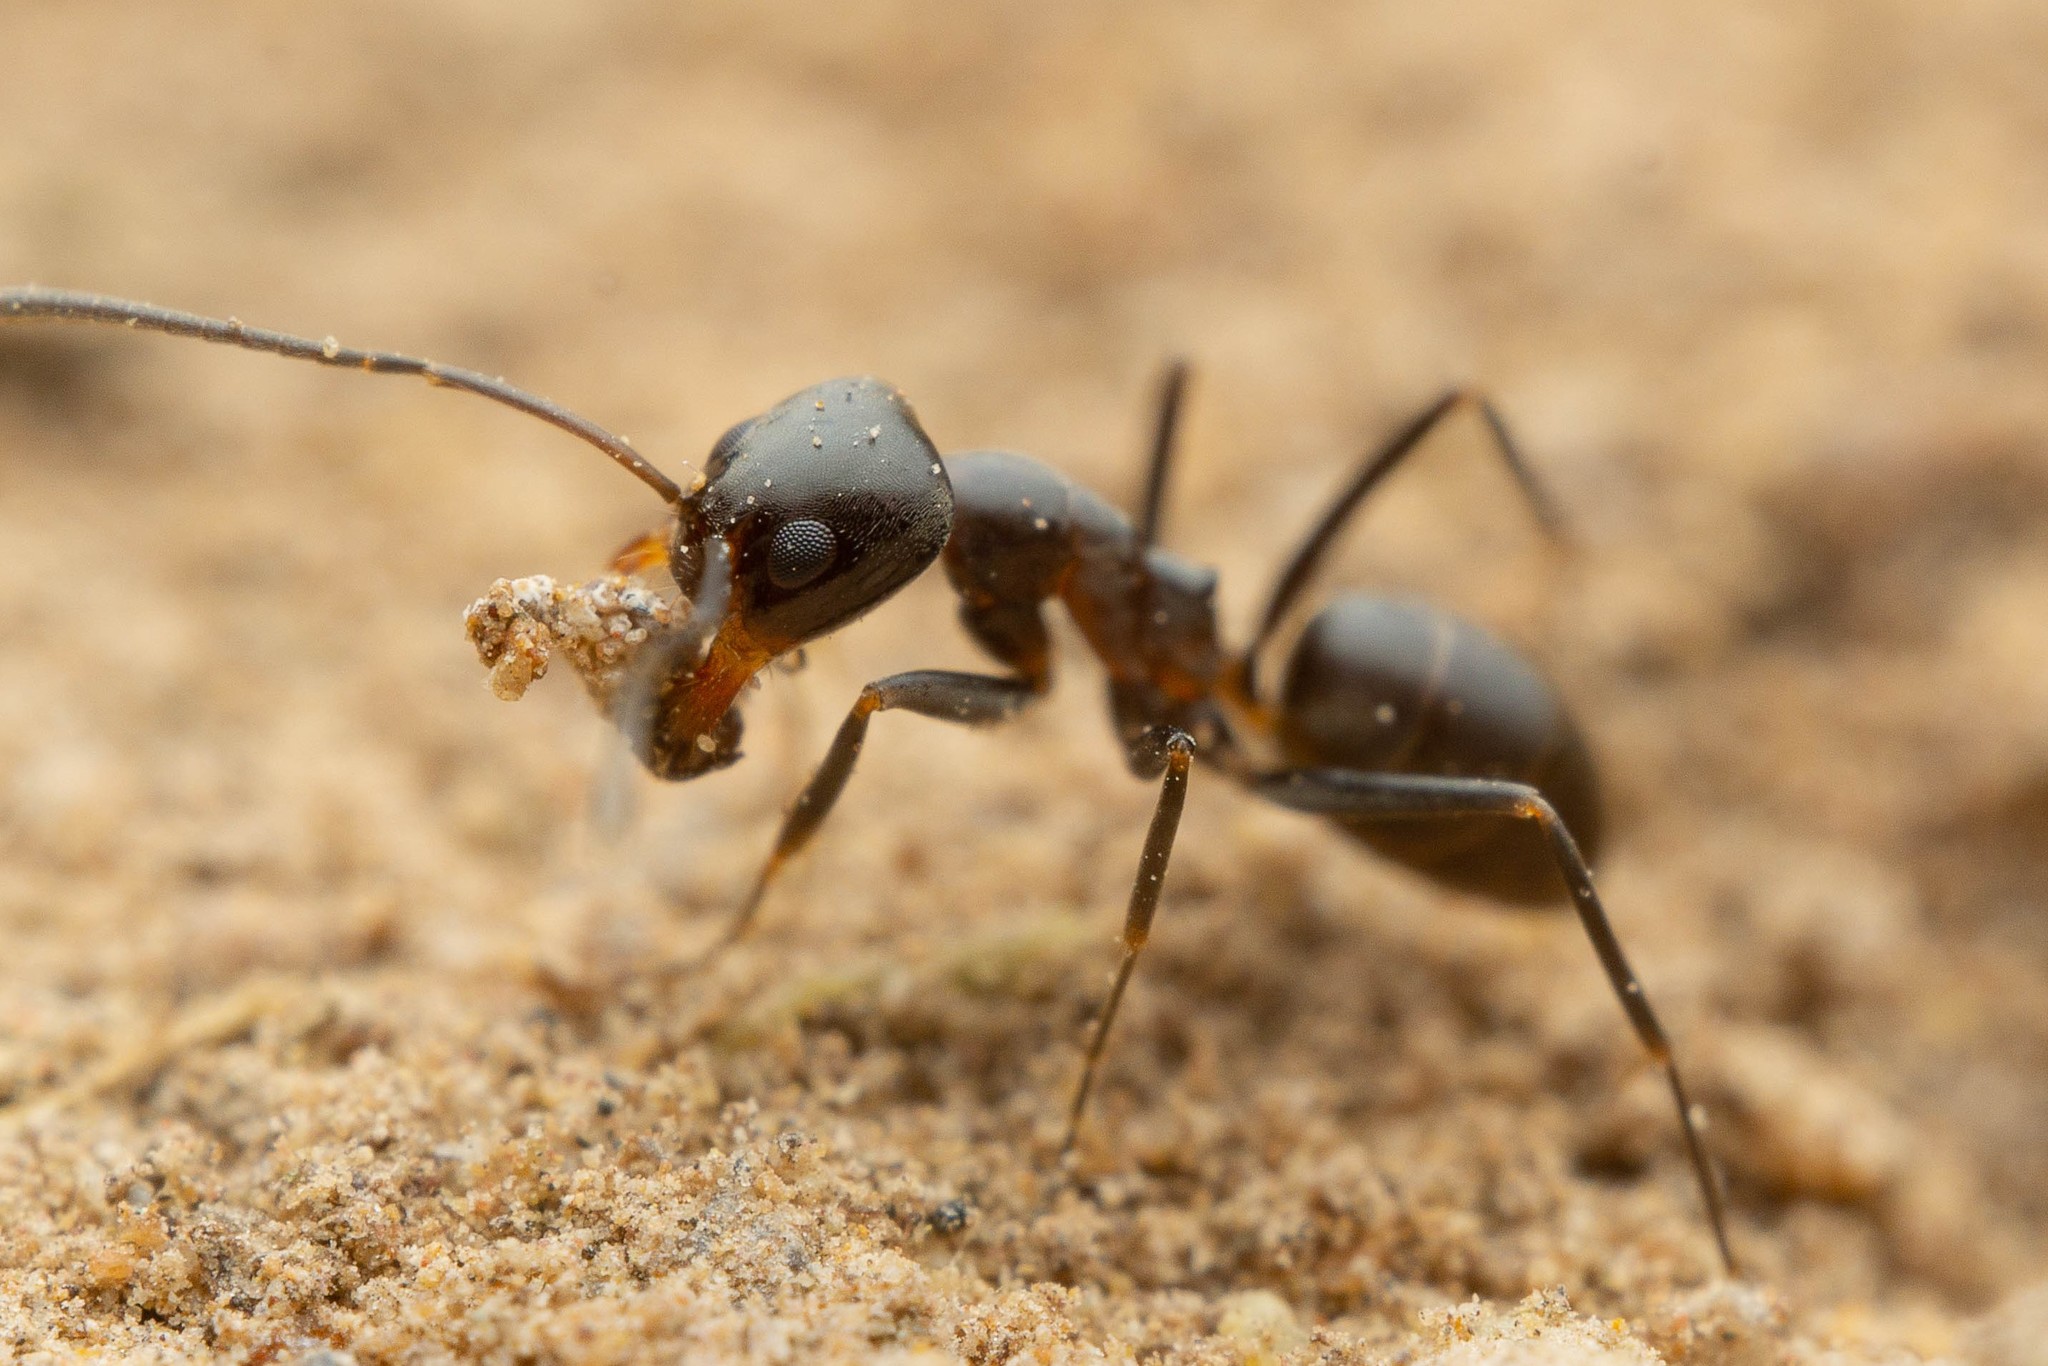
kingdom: Animalia
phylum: Arthropoda
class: Insecta
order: Hymenoptera
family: Formicidae
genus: Dorymyrmex
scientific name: Dorymyrmex
